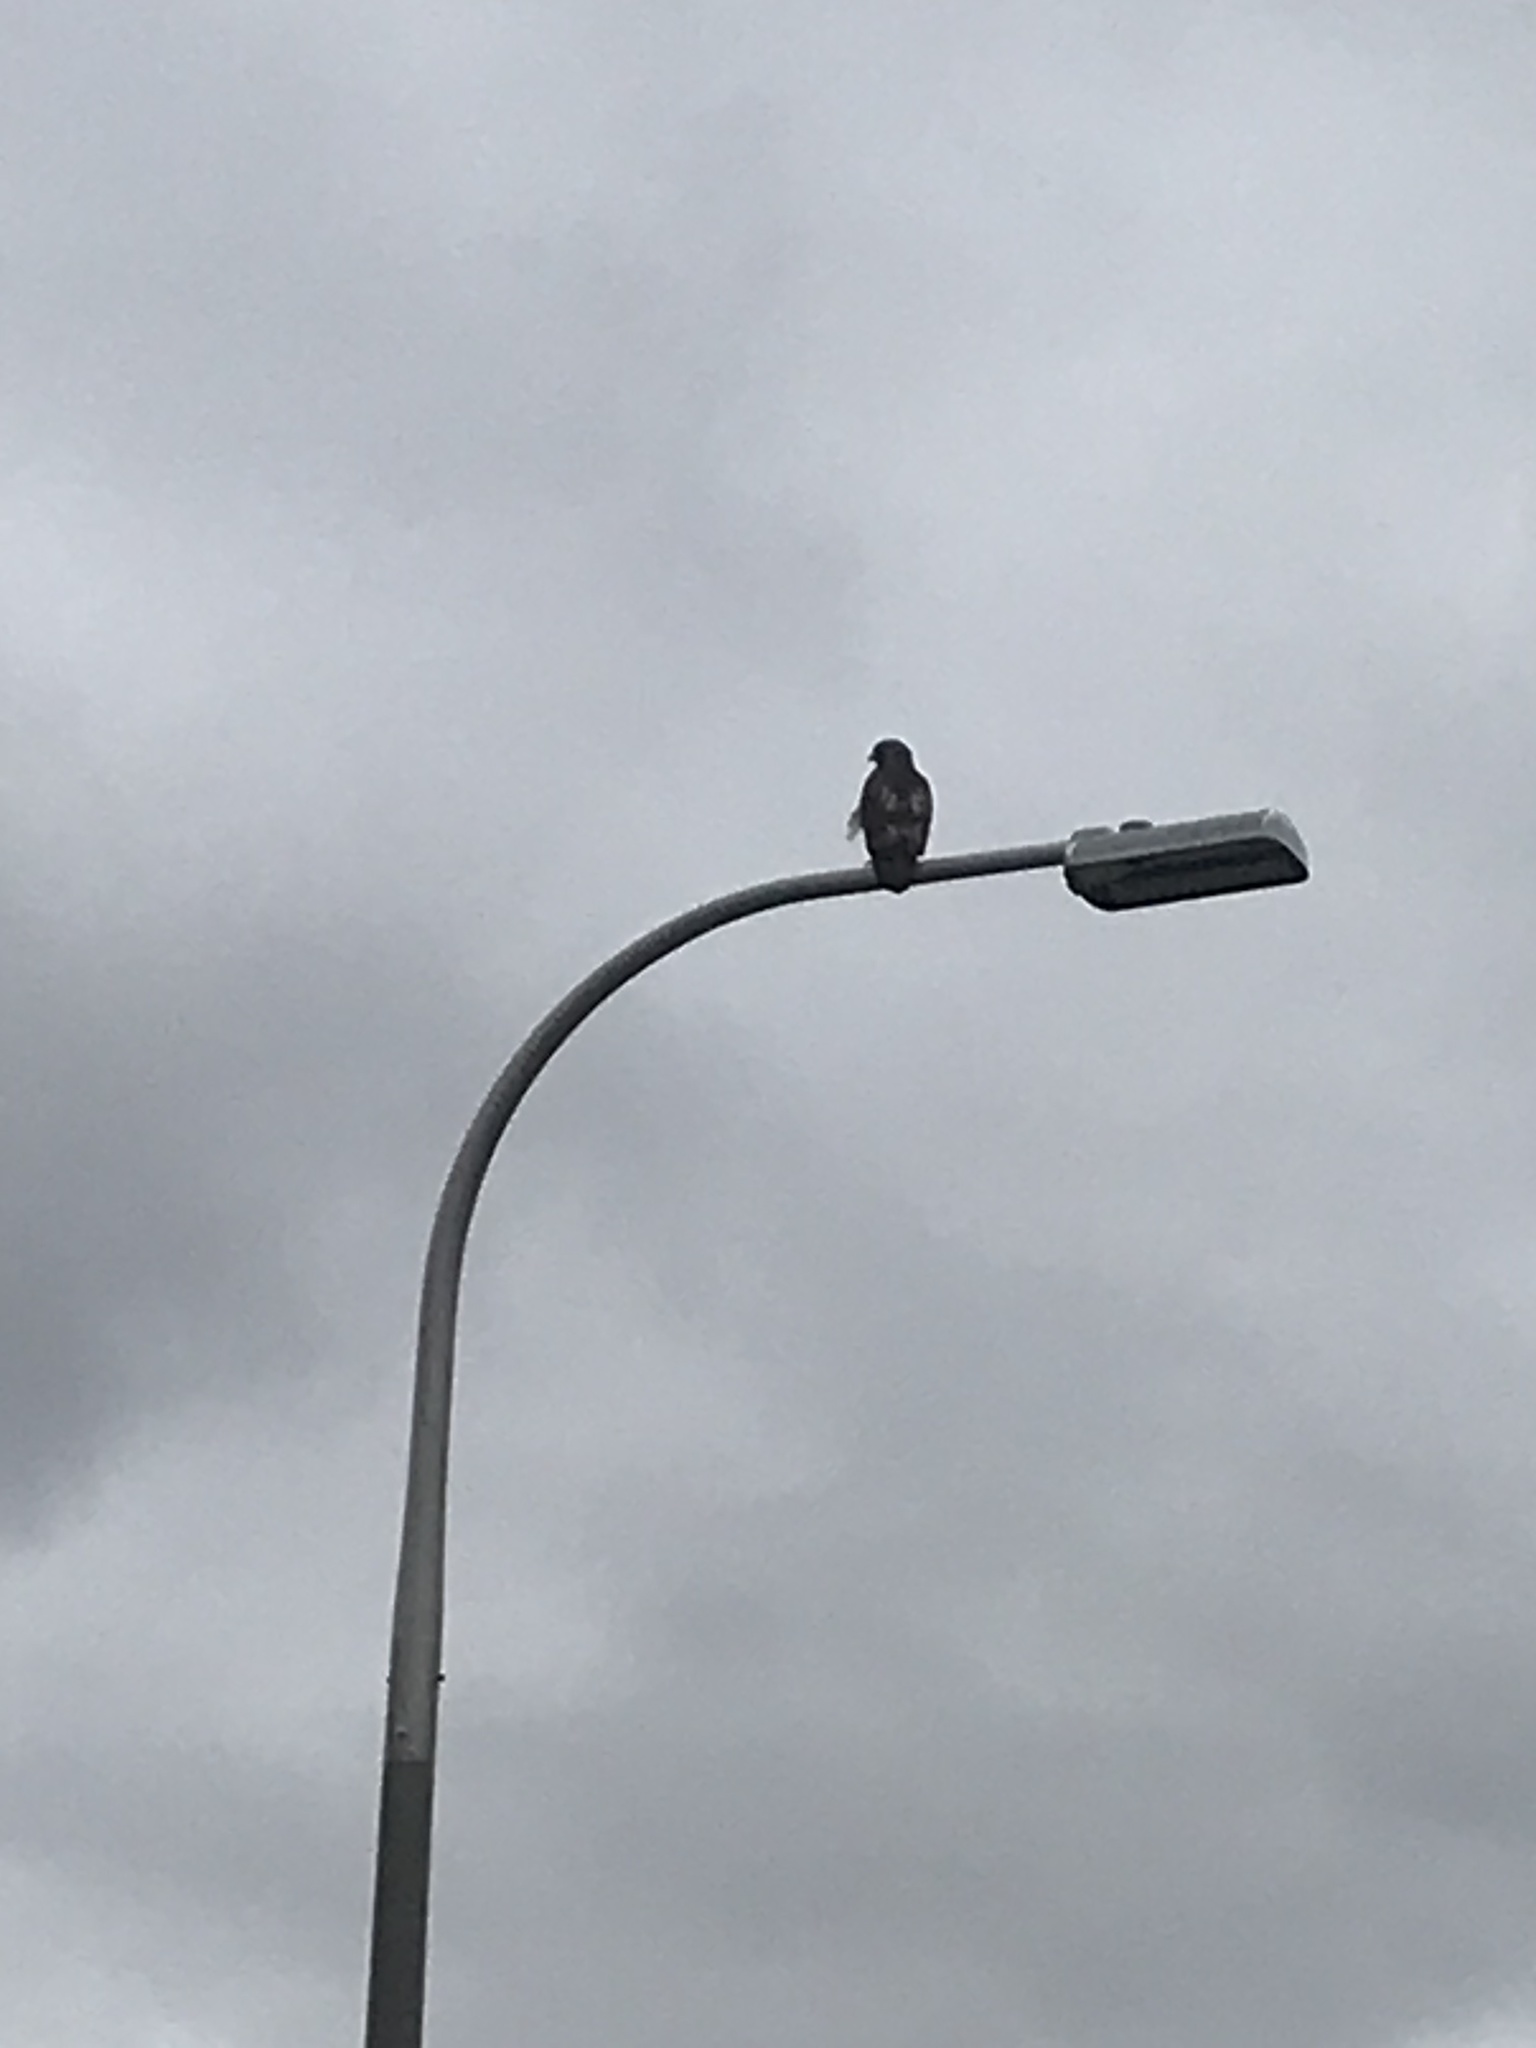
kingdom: Animalia
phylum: Chordata
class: Aves
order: Accipitriformes
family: Accipitridae
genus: Buteo
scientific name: Buteo jamaicensis
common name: Red-tailed hawk
